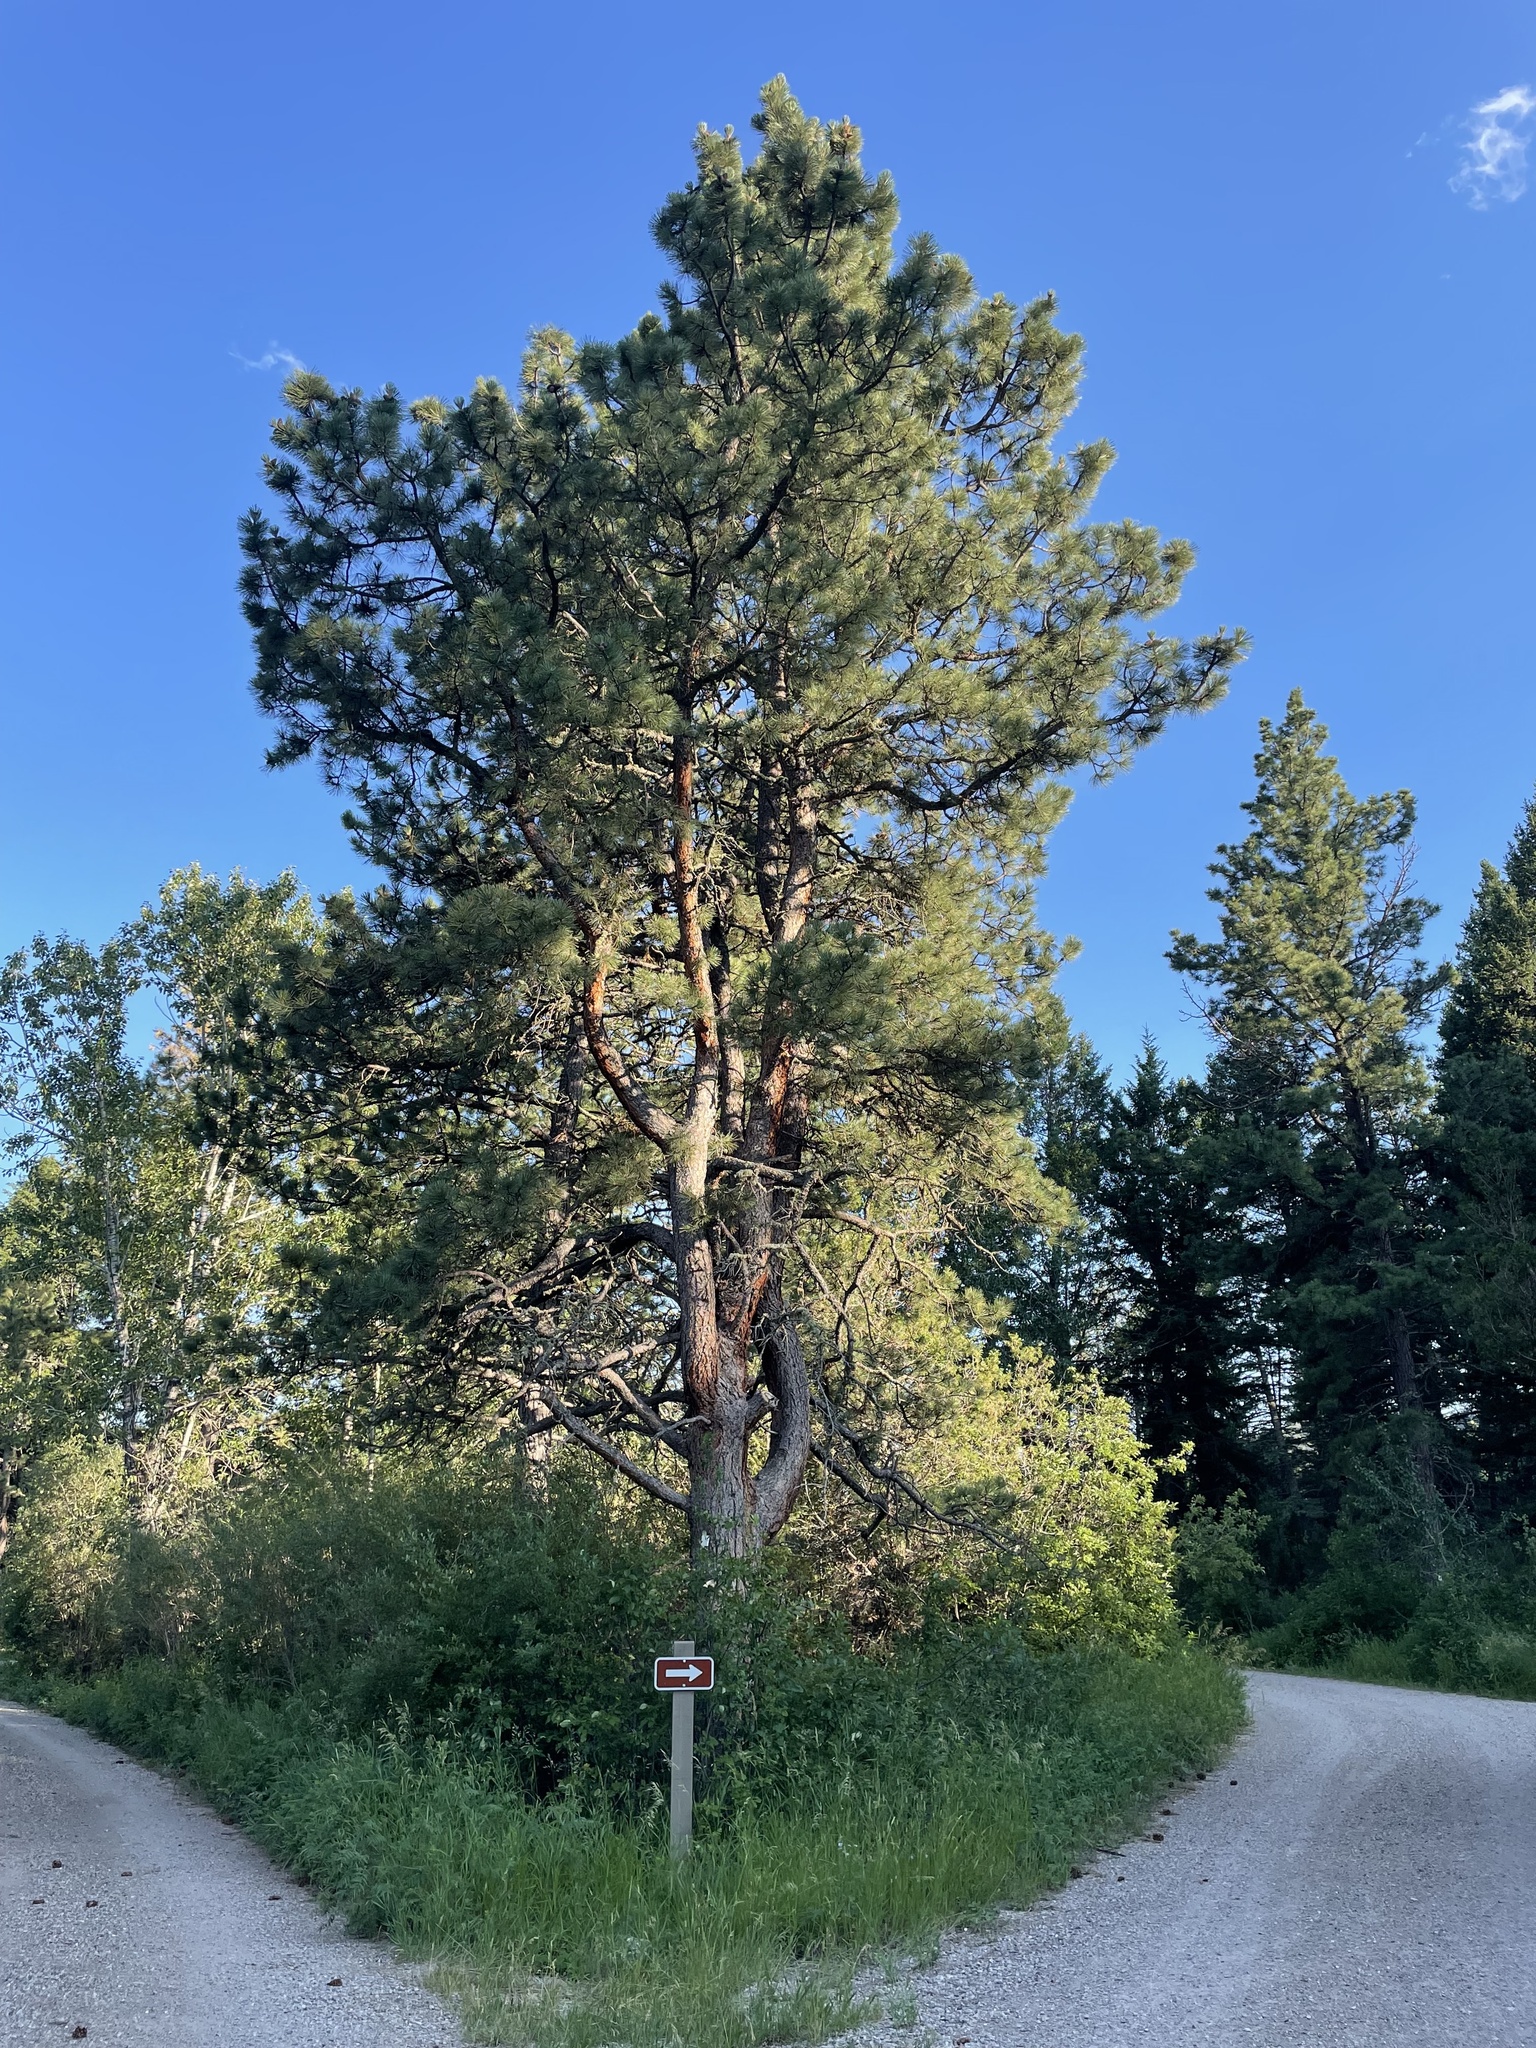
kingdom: Plantae
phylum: Tracheophyta
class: Pinopsida
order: Pinales
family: Pinaceae
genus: Pinus
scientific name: Pinus ponderosa
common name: Western yellow-pine
